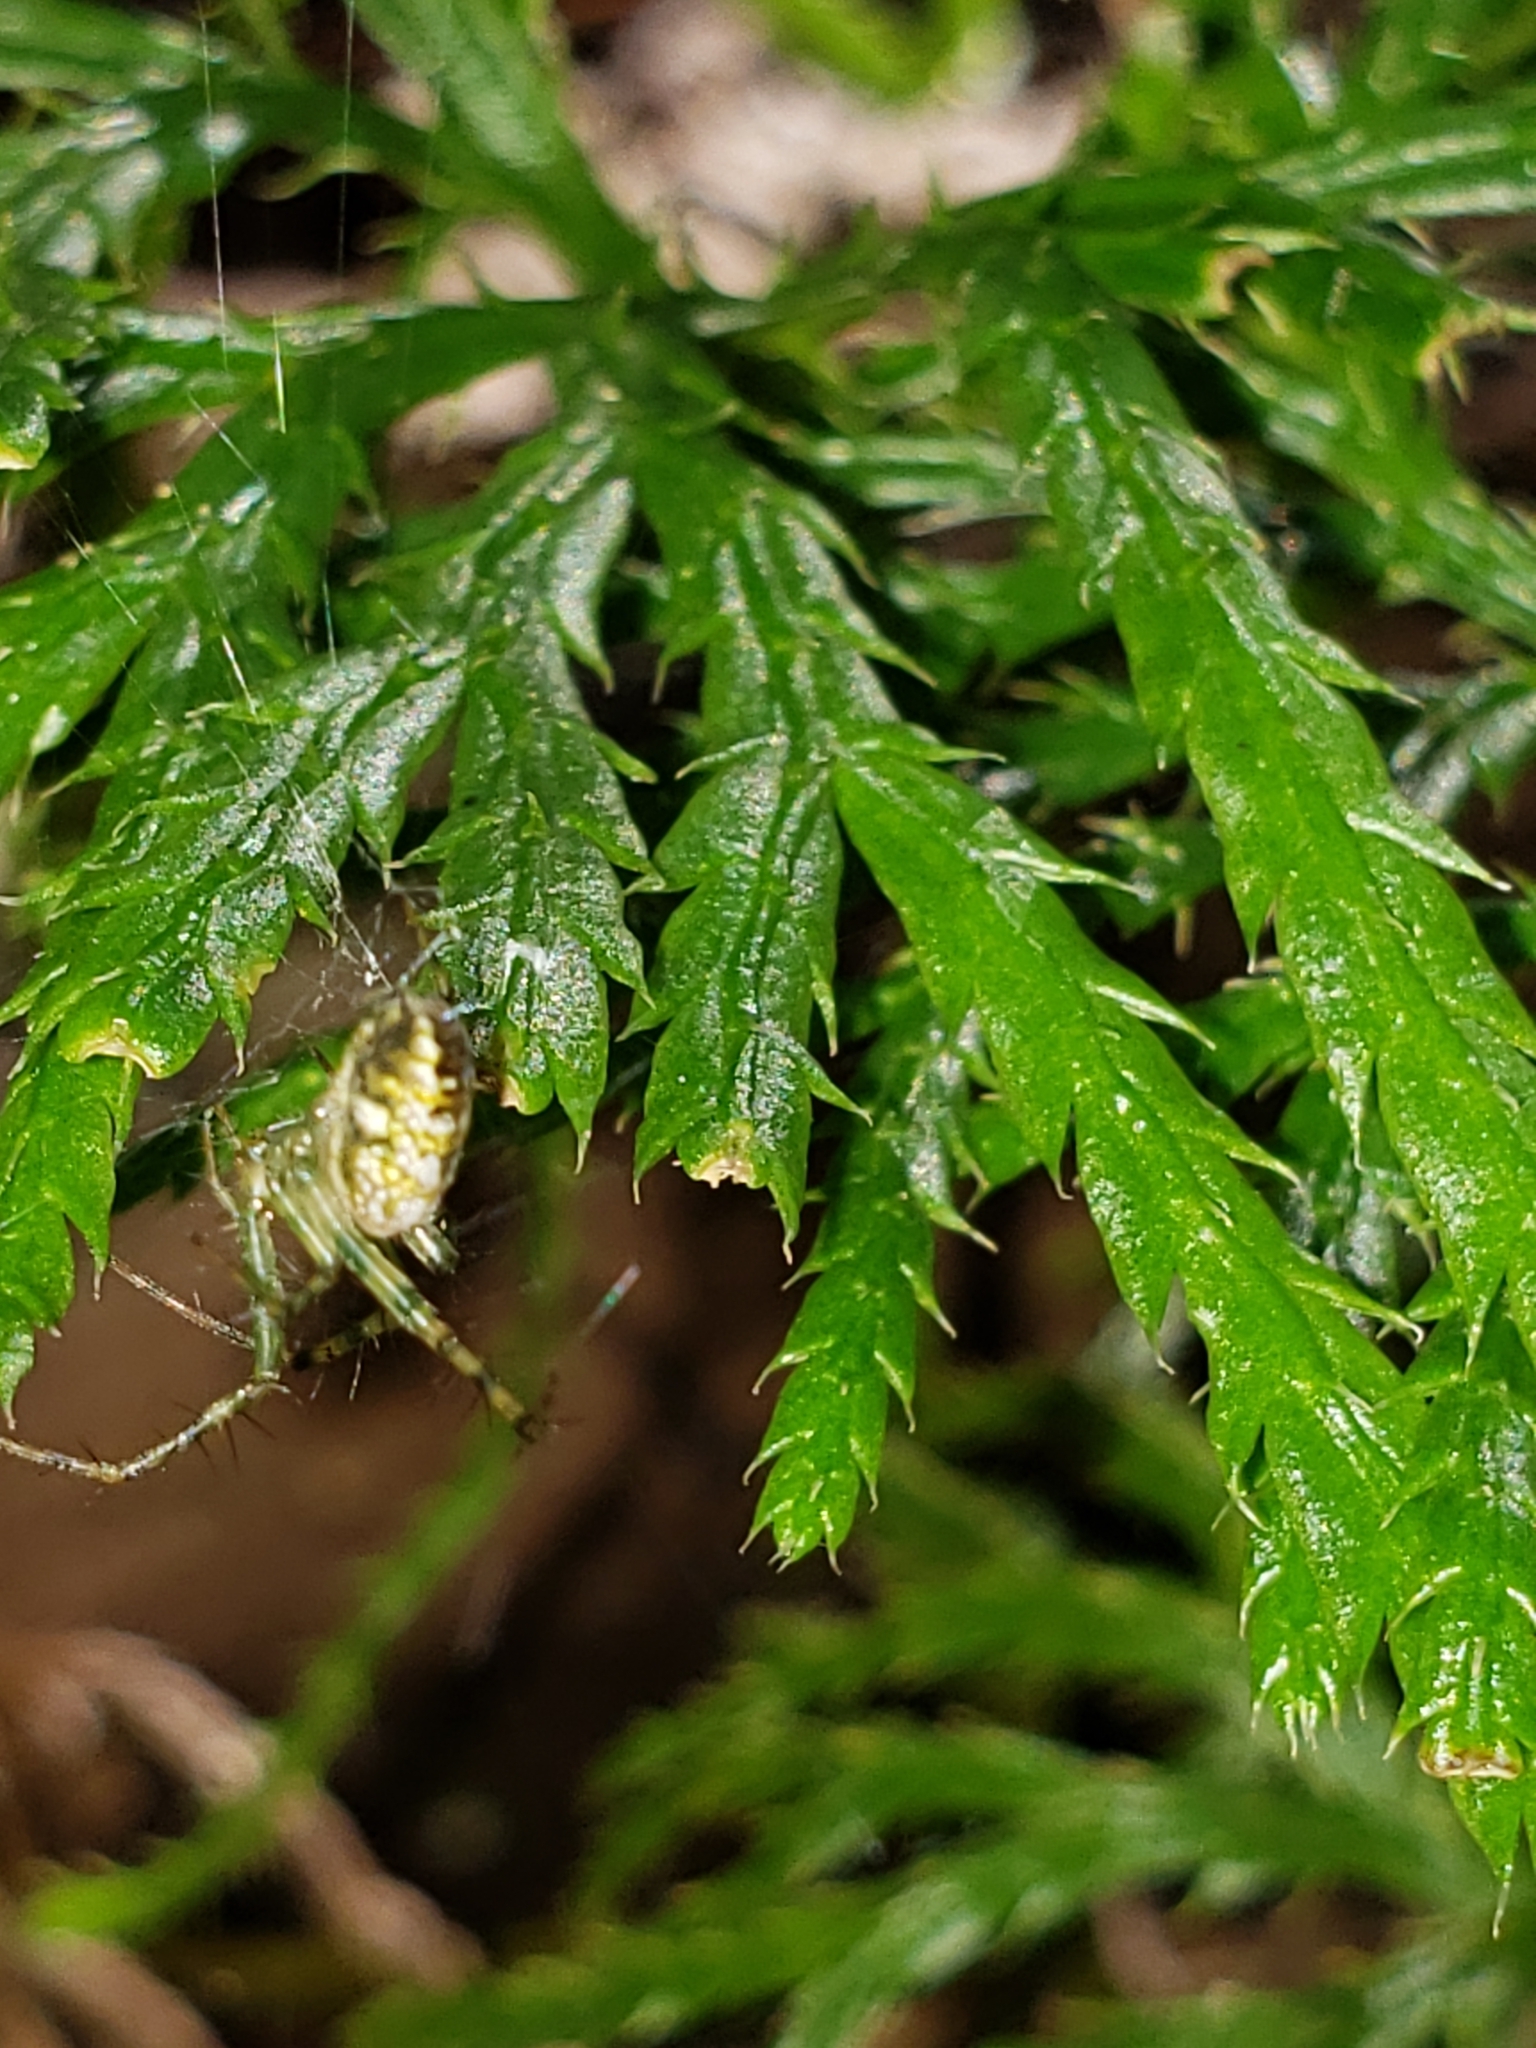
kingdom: Animalia
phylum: Arthropoda
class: Arachnida
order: Araneae
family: Araneidae
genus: Mangora
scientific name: Mangora spiculata
